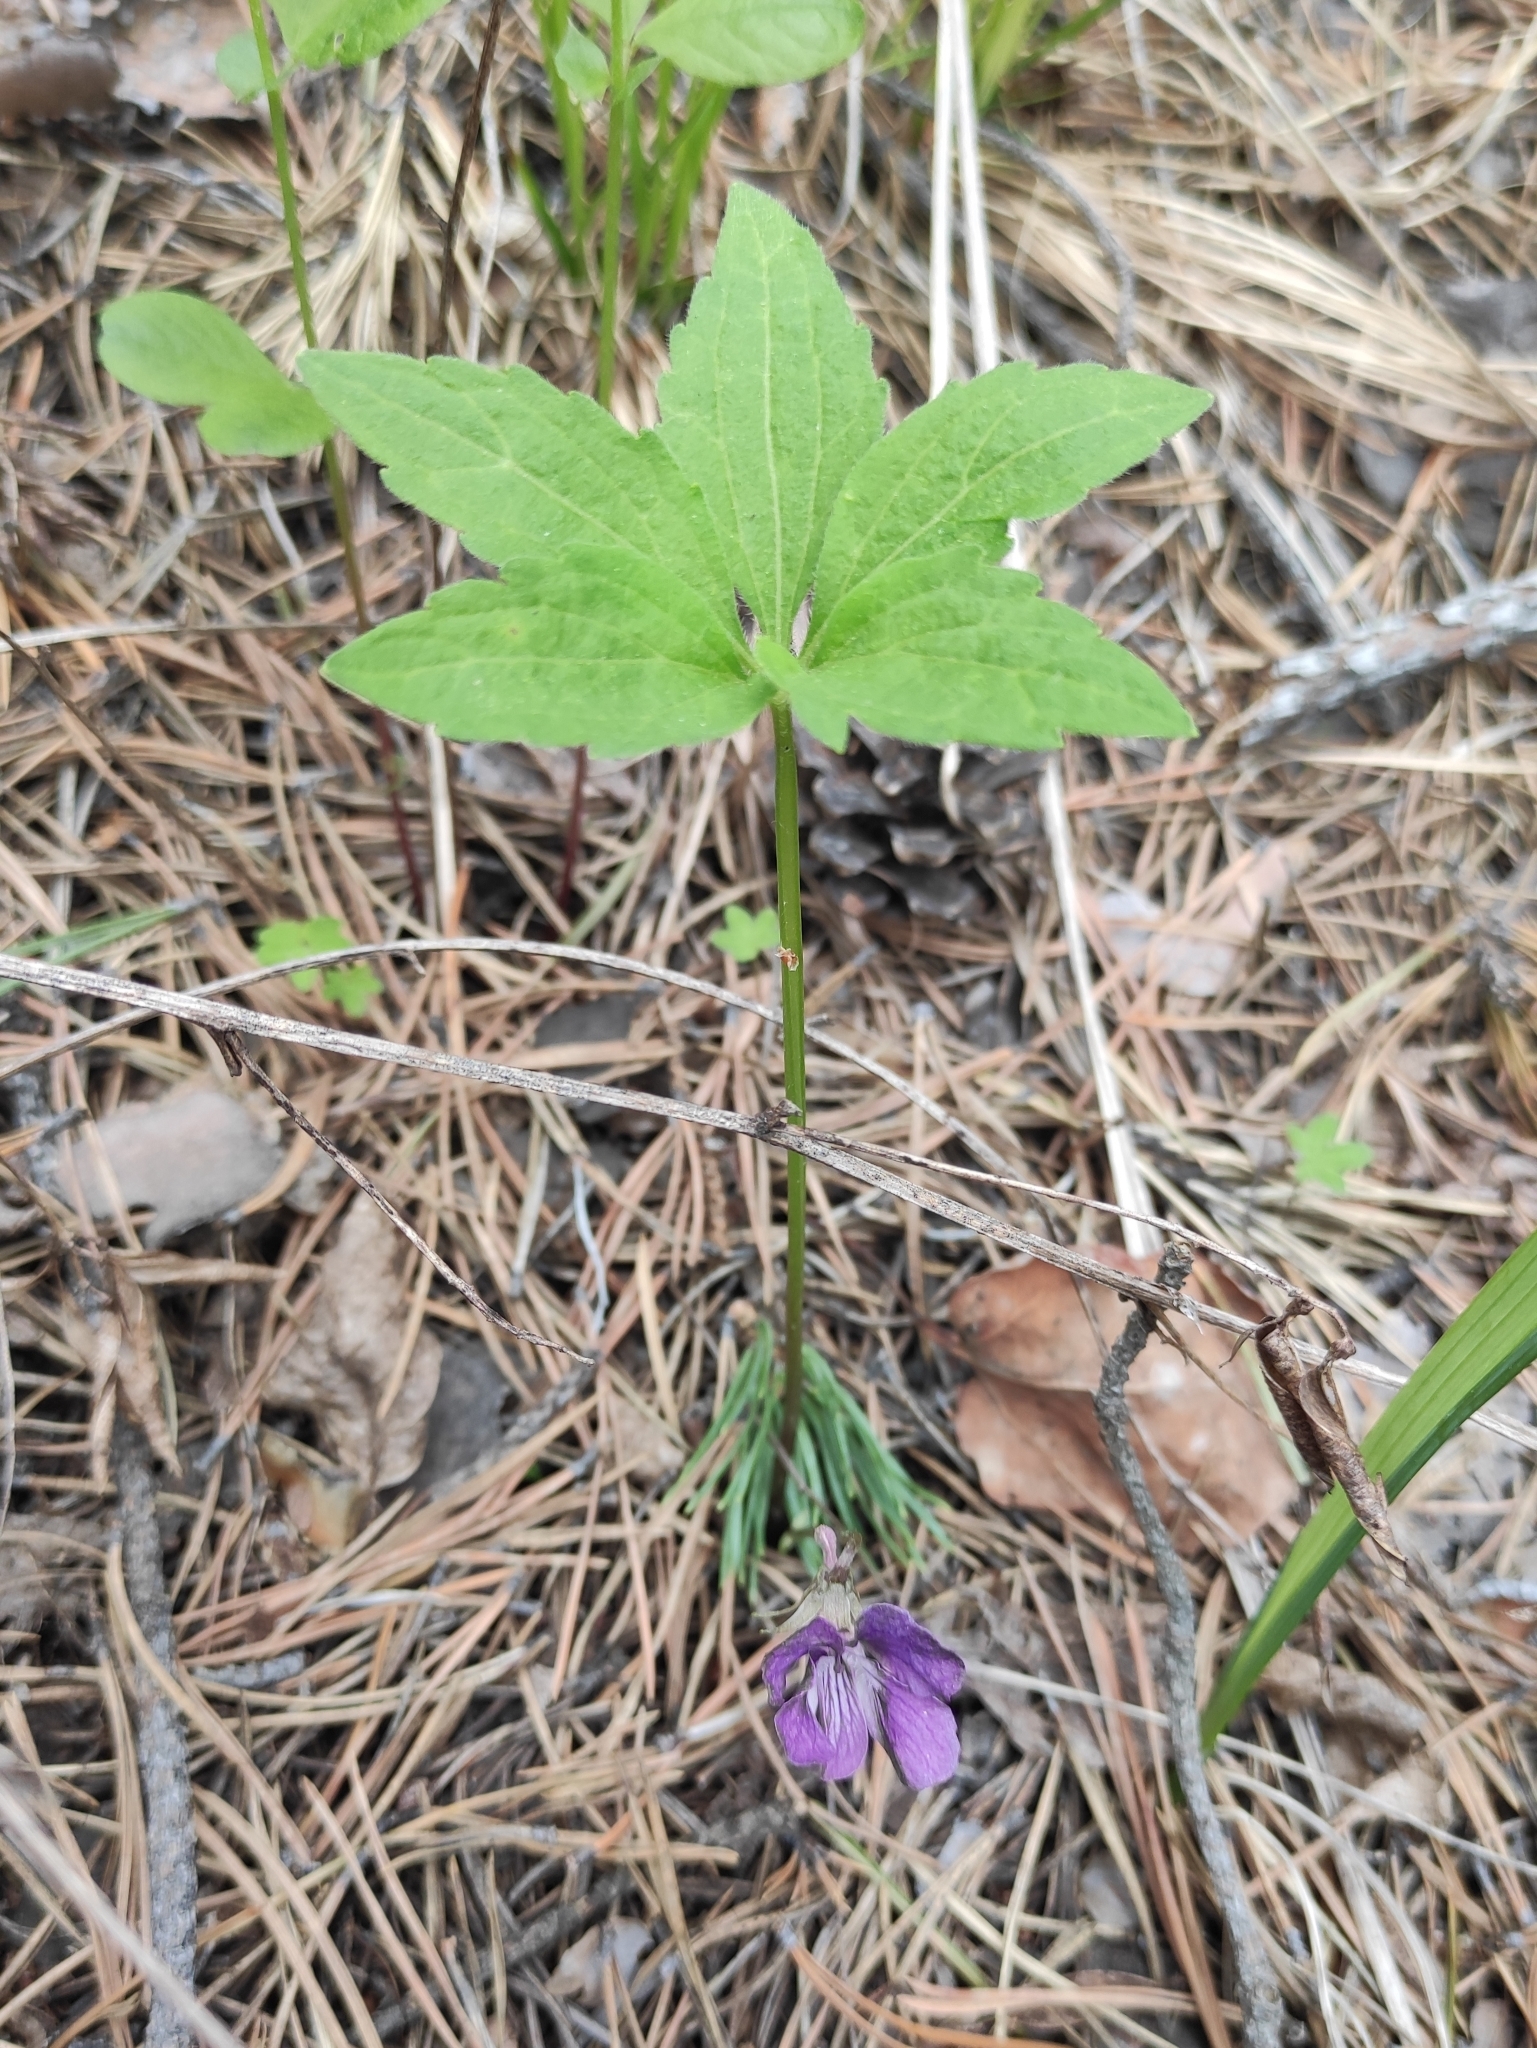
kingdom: Plantae
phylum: Tracheophyta
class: Magnoliopsida
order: Malpighiales
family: Violaceae
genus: Viola
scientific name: Viola dactyloides
